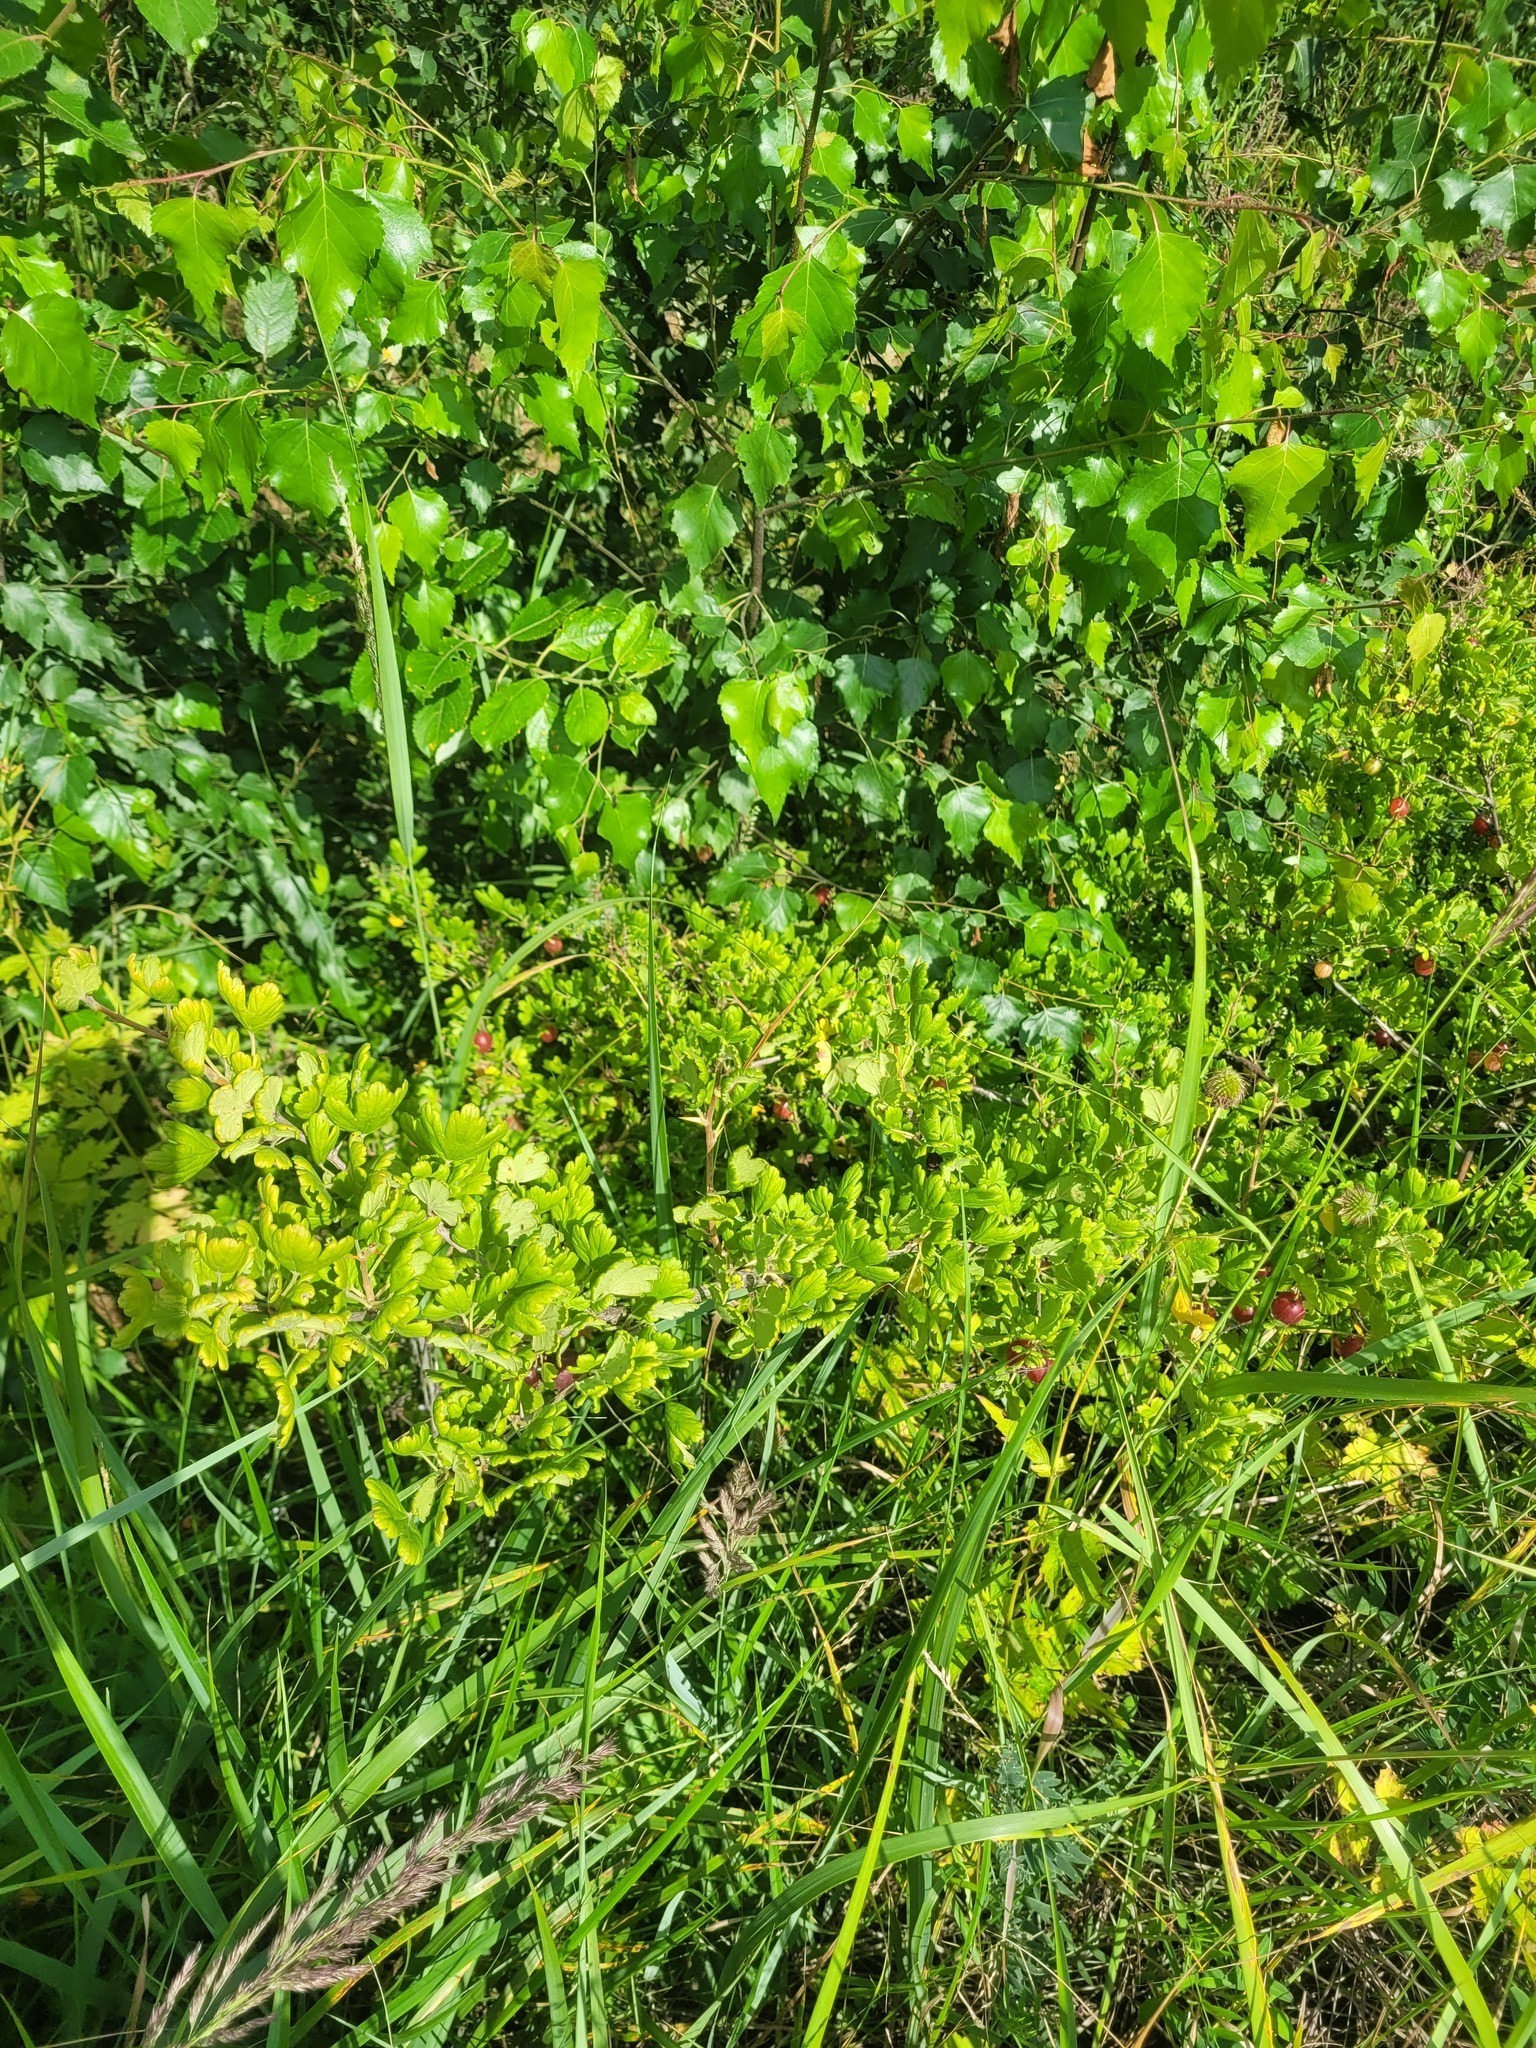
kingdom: Plantae
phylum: Tracheophyta
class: Magnoliopsida
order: Saxifragales
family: Grossulariaceae
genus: Ribes
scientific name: Ribes uva-crispa
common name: Gooseberry
